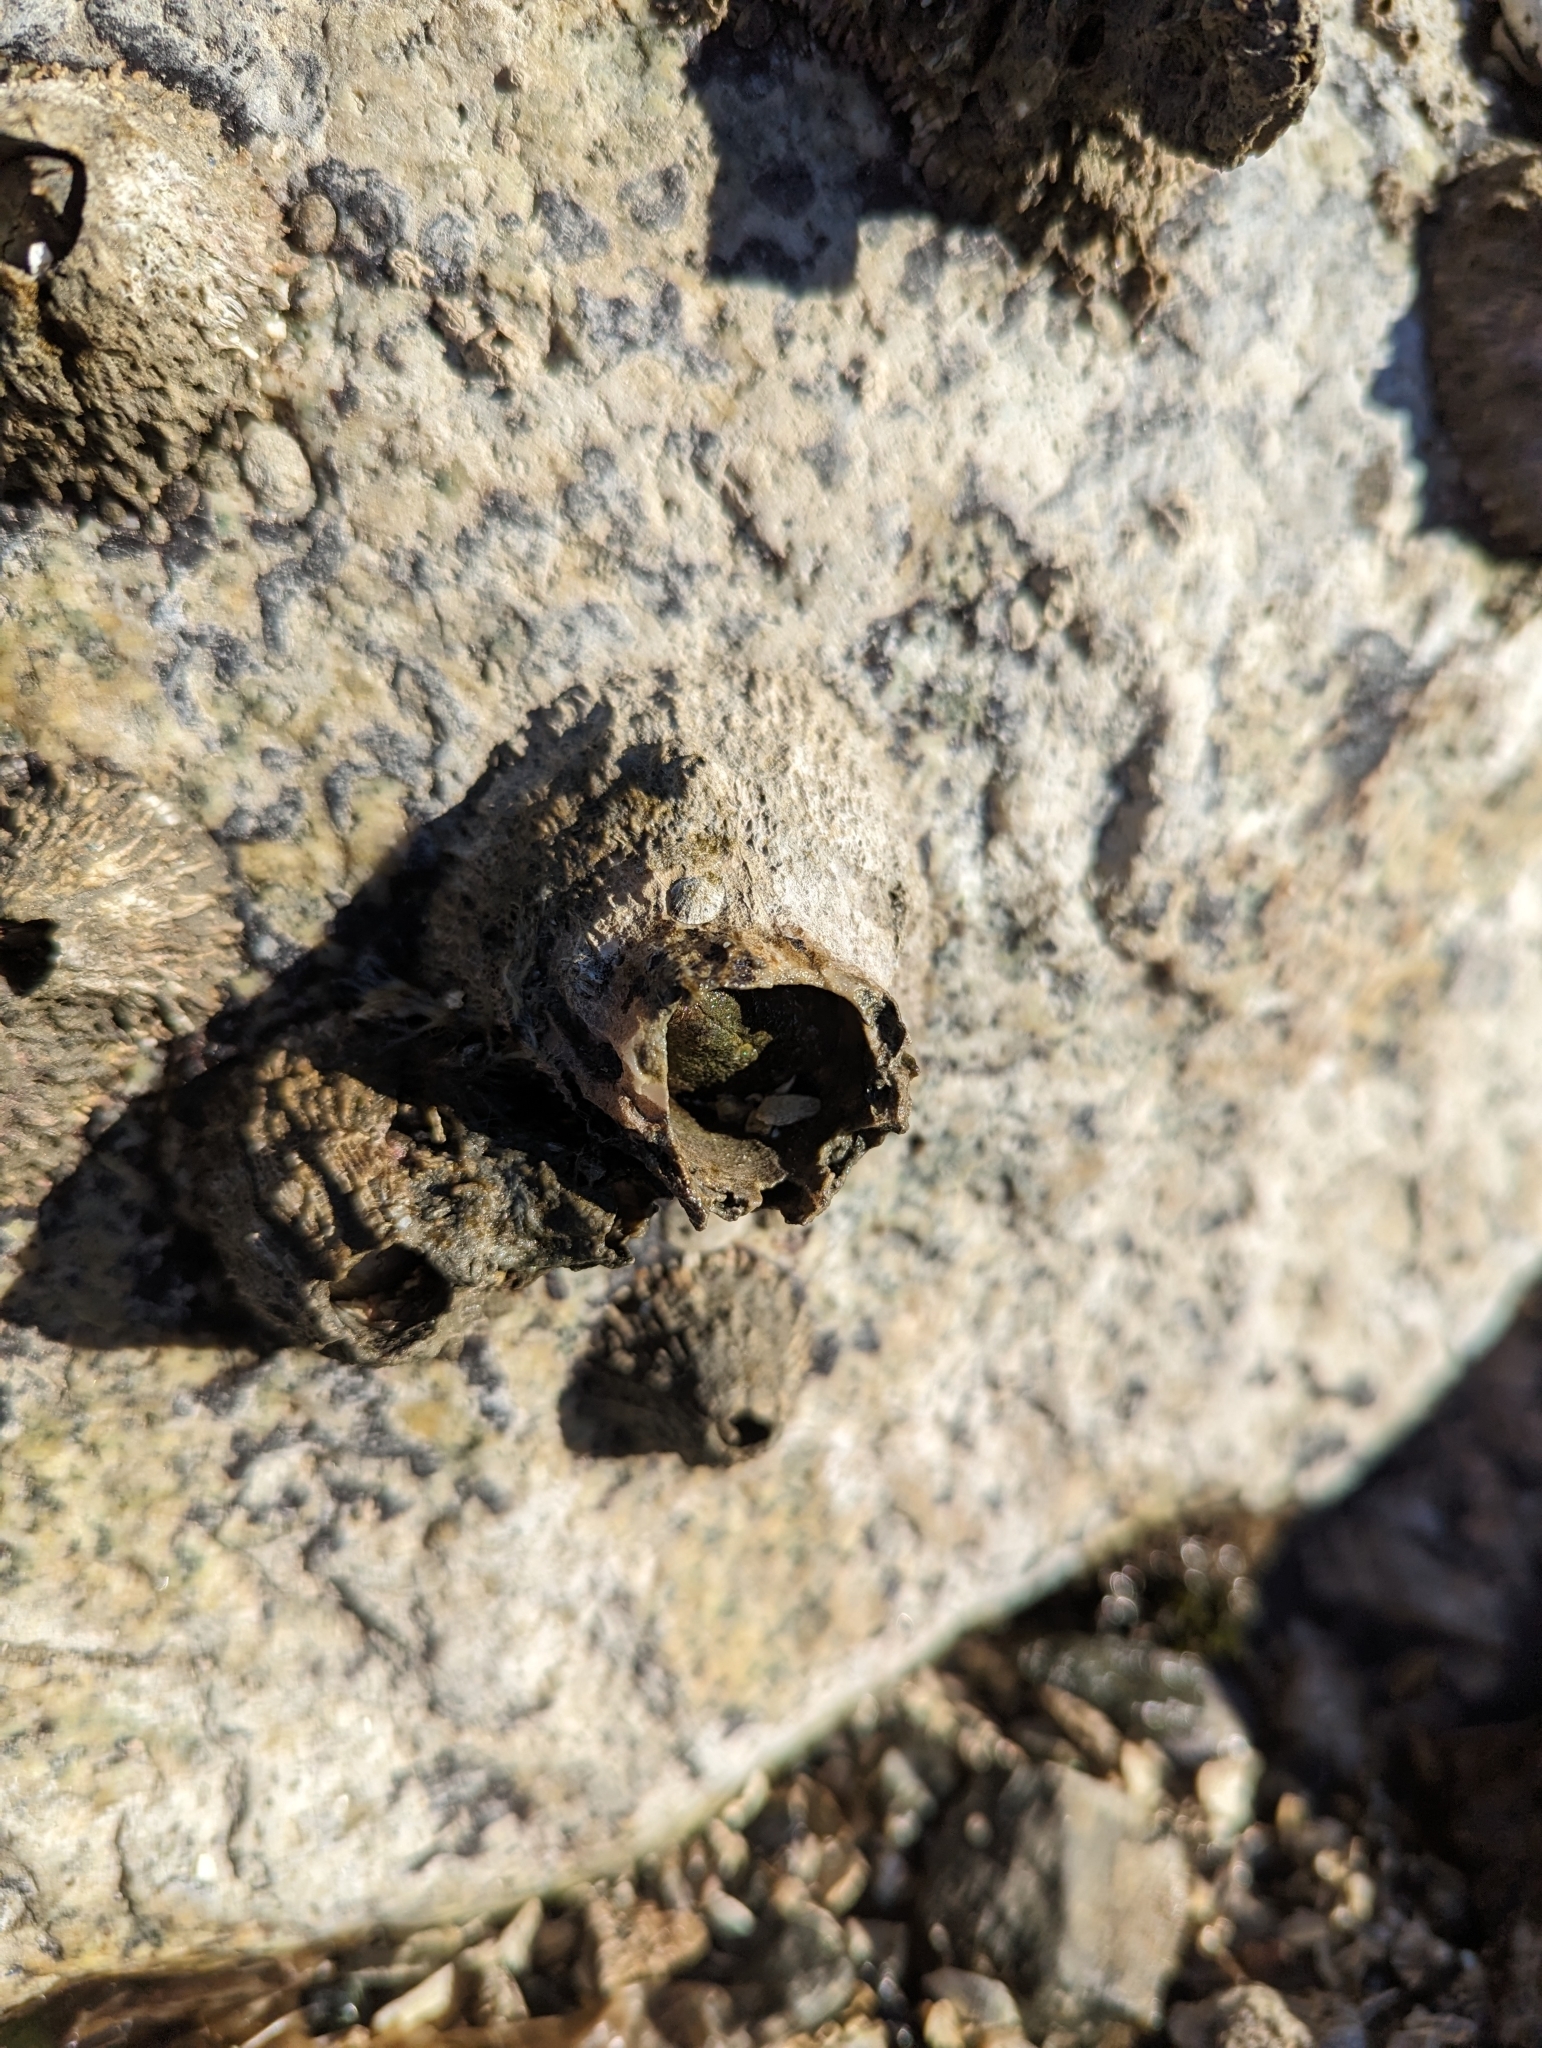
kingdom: Animalia
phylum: Arthropoda
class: Maxillopoda
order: Sessilia
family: Archaeobalanidae
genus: Semibalanus
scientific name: Semibalanus cariosus
